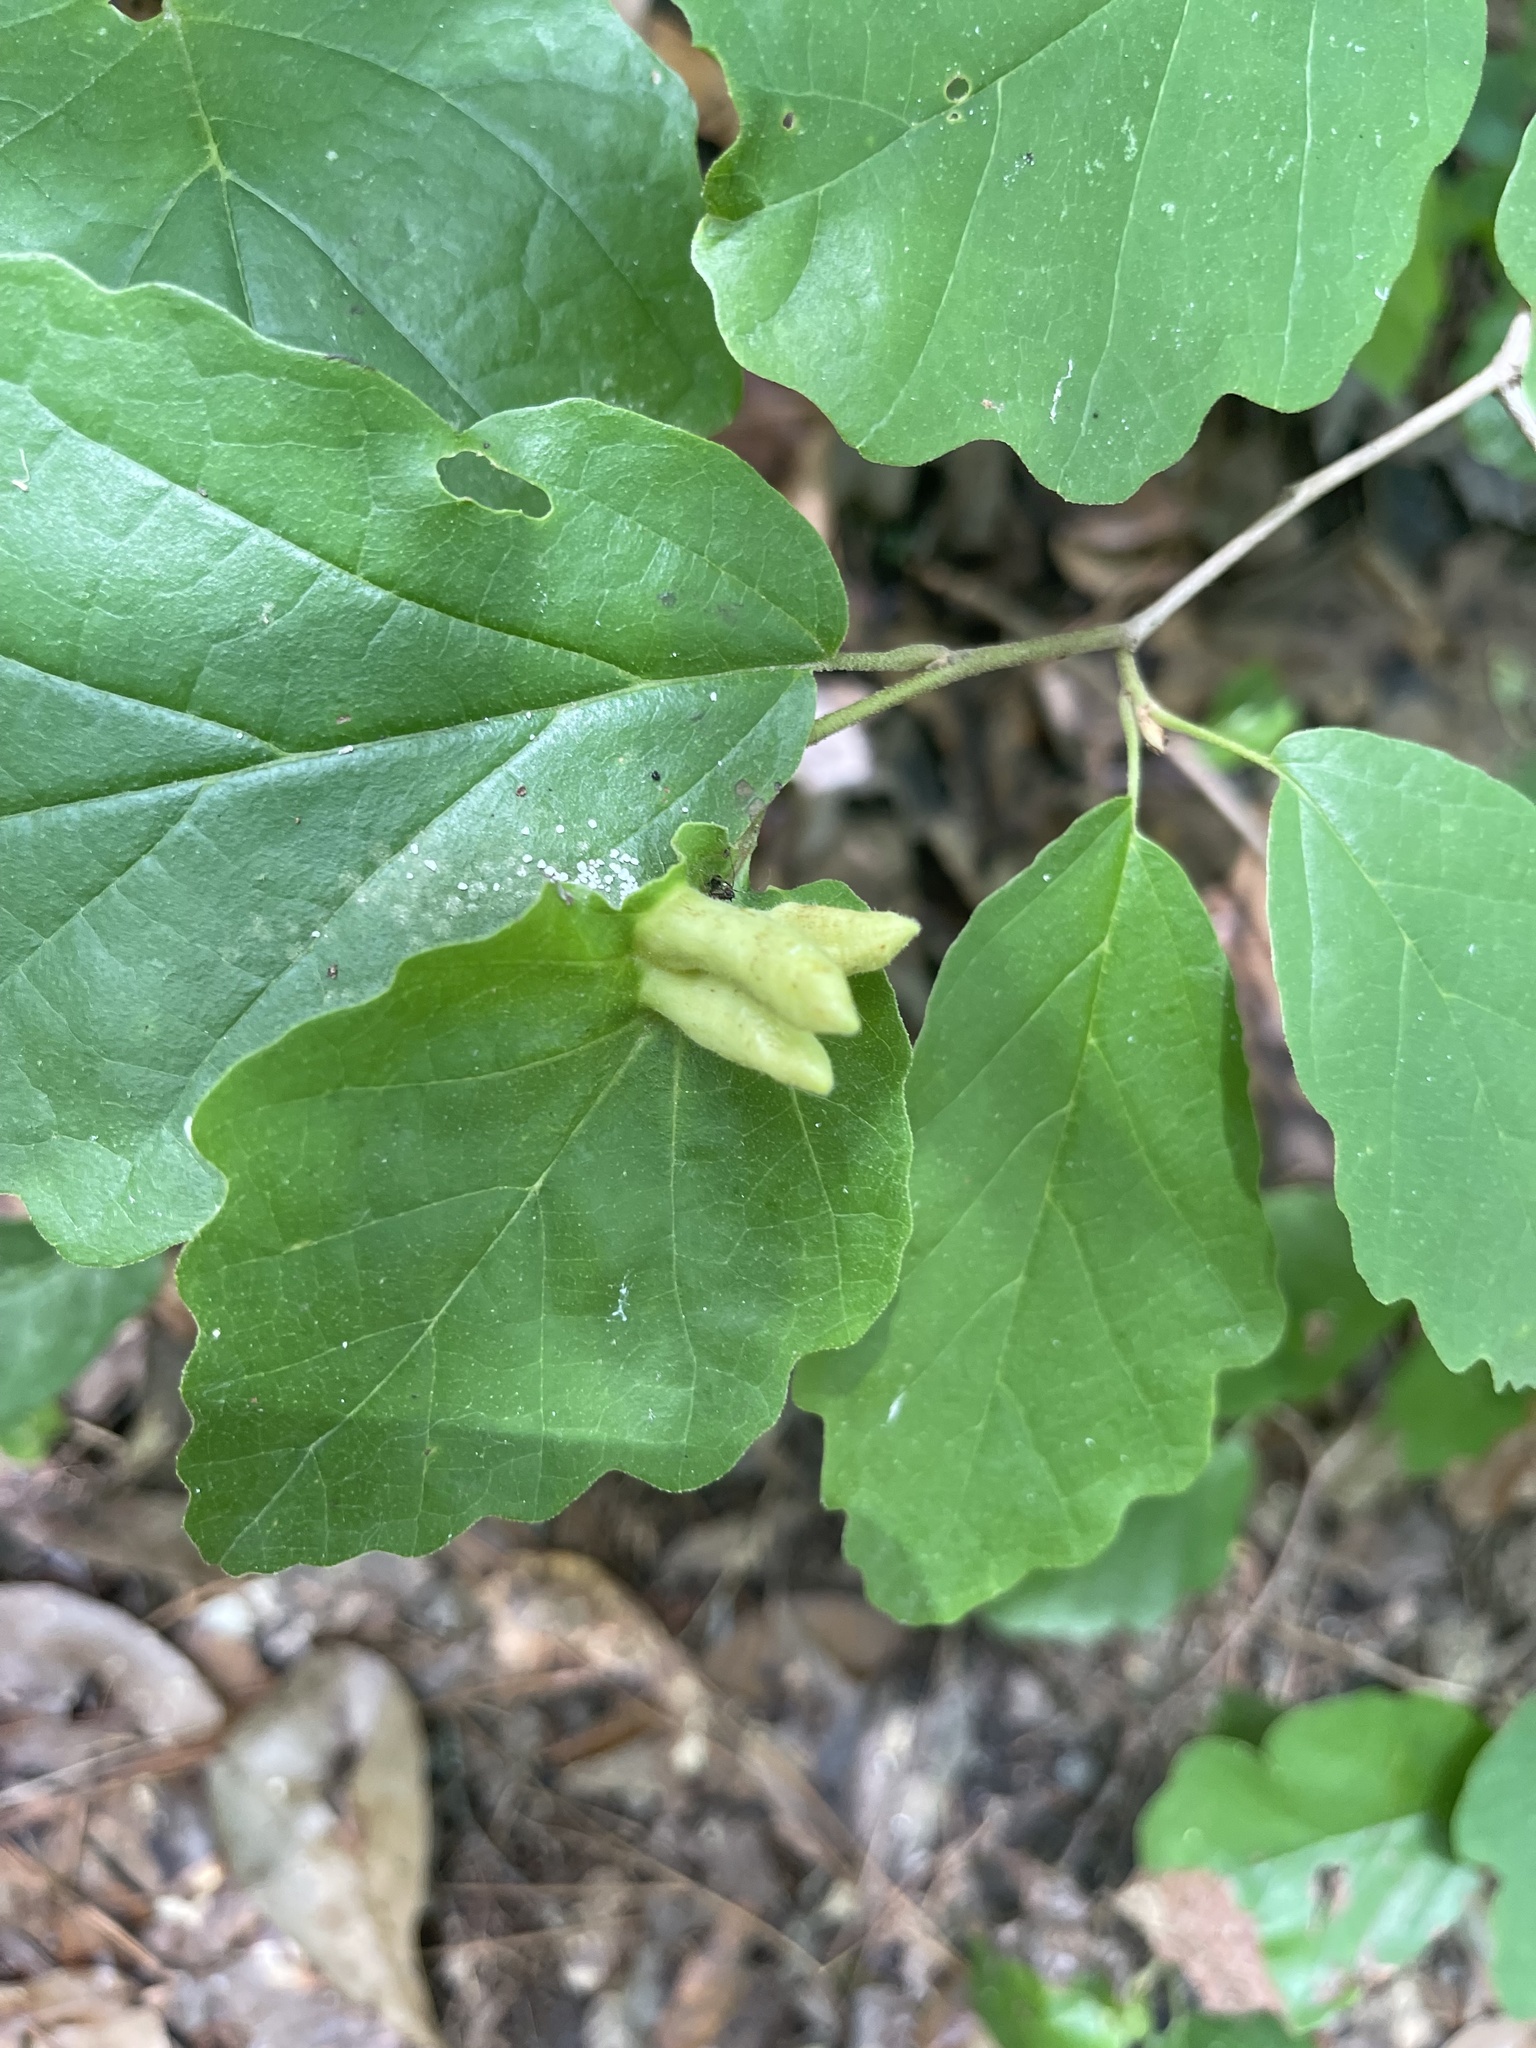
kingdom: Animalia
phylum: Arthropoda
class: Insecta
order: Hemiptera
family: Aphididae
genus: Hormaphis
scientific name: Hormaphis hamamelidis
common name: Witch-hazel cone gall aphid
